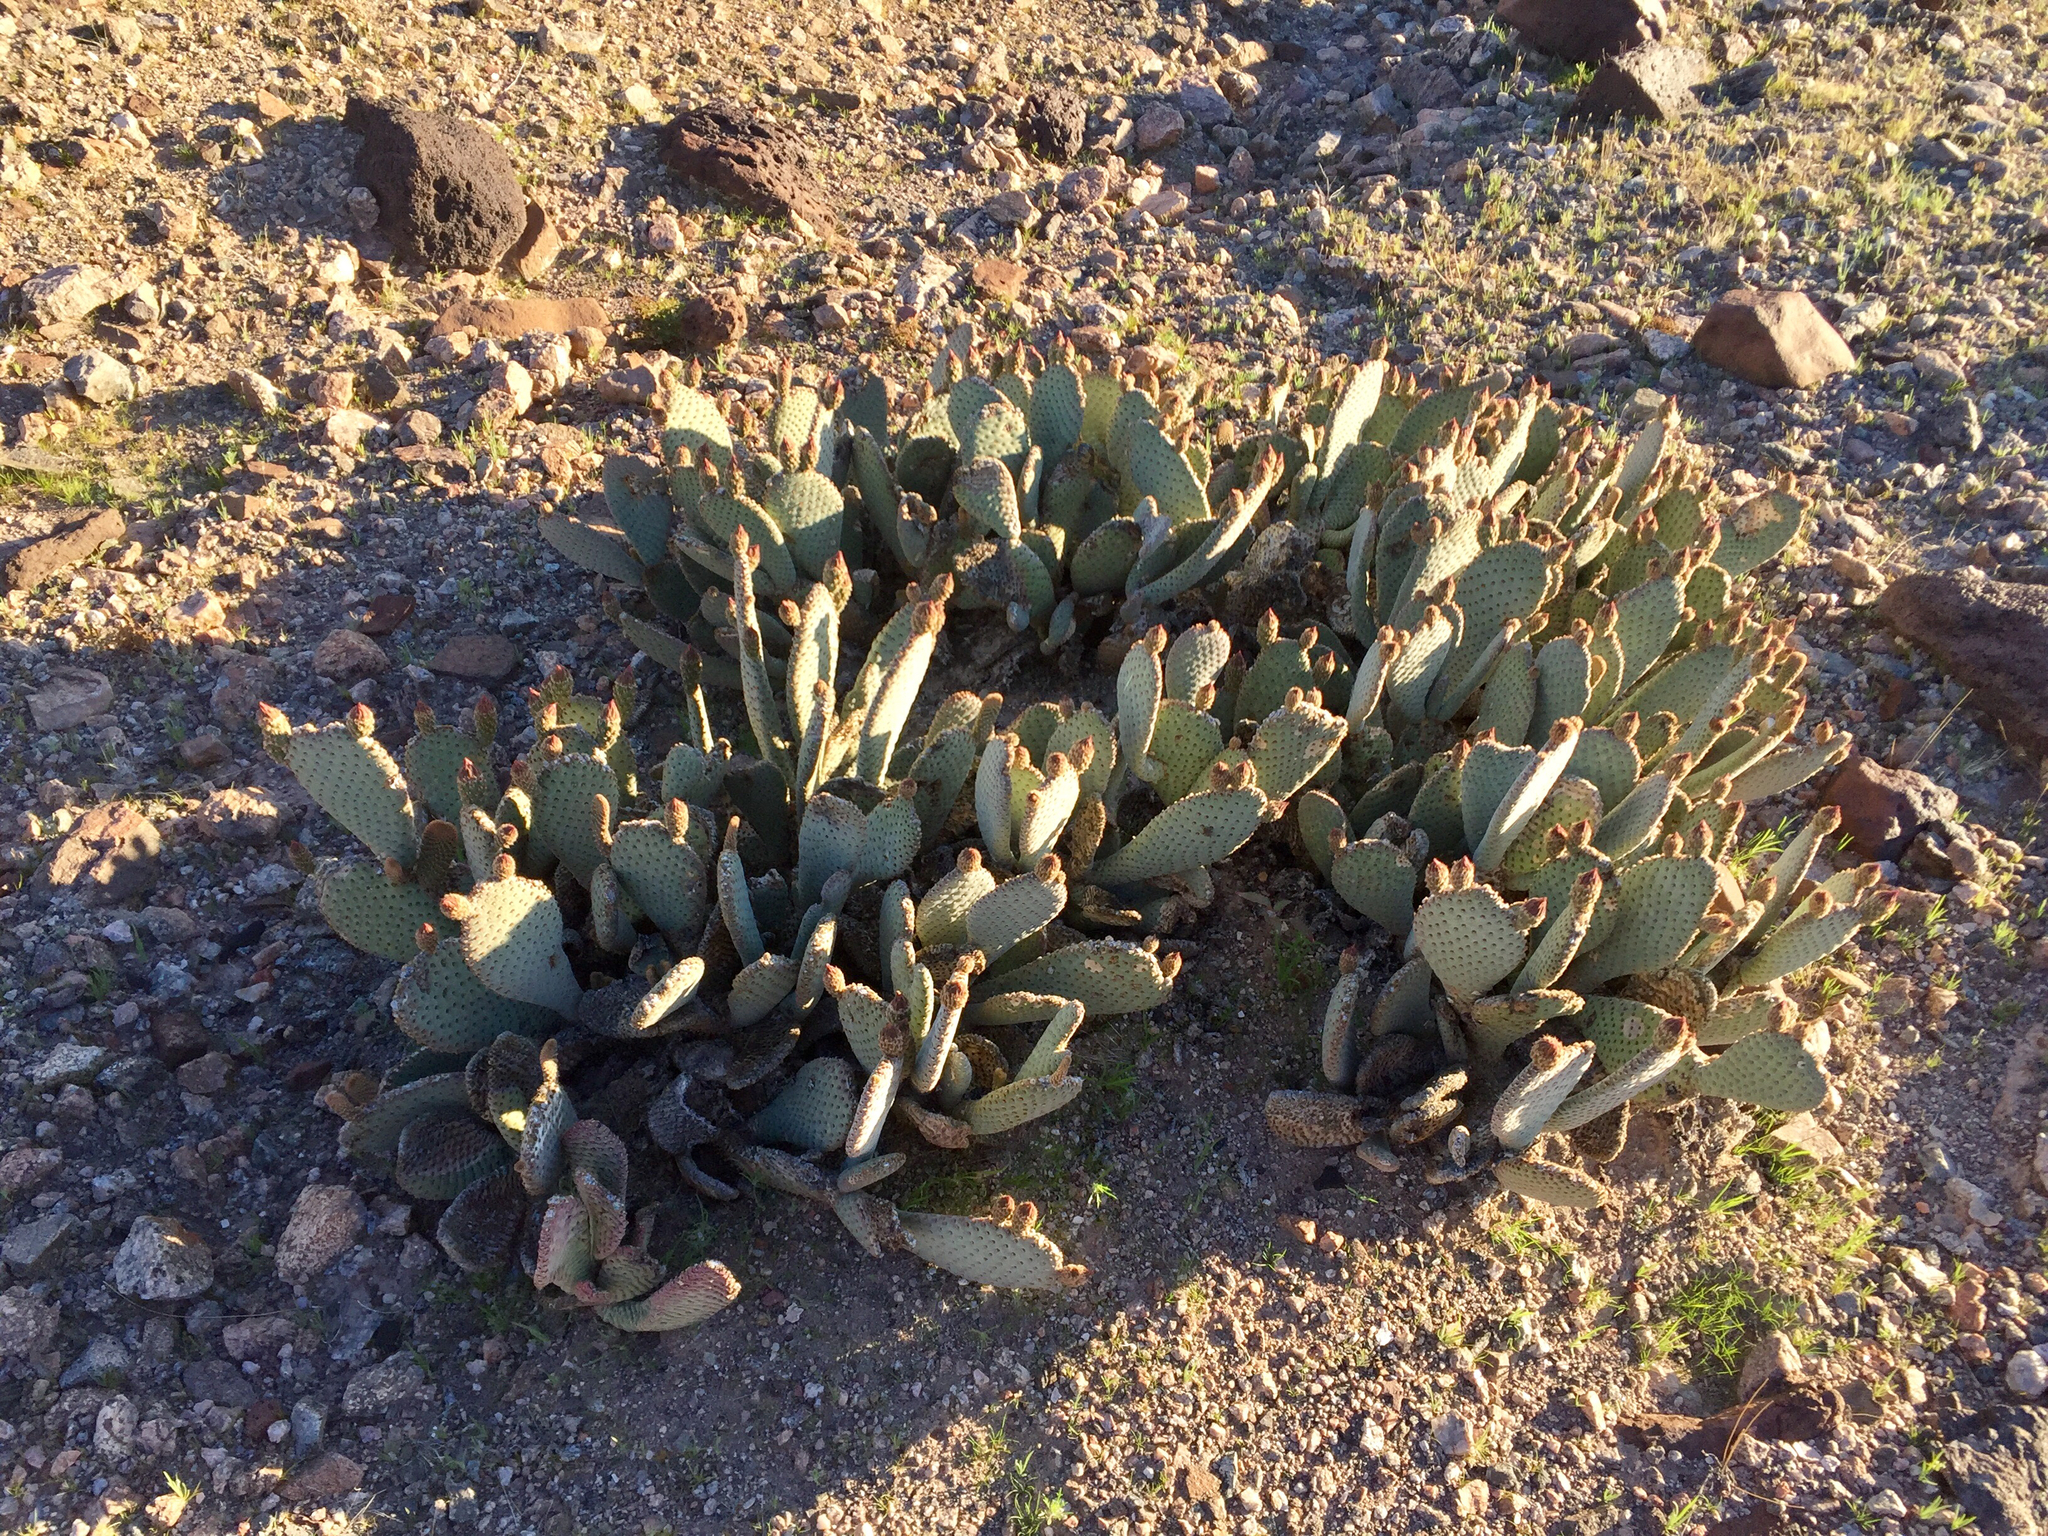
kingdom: Plantae
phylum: Tracheophyta
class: Magnoliopsida
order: Caryophyllales
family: Cactaceae
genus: Opuntia
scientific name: Opuntia basilaris
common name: Beavertail prickly-pear
